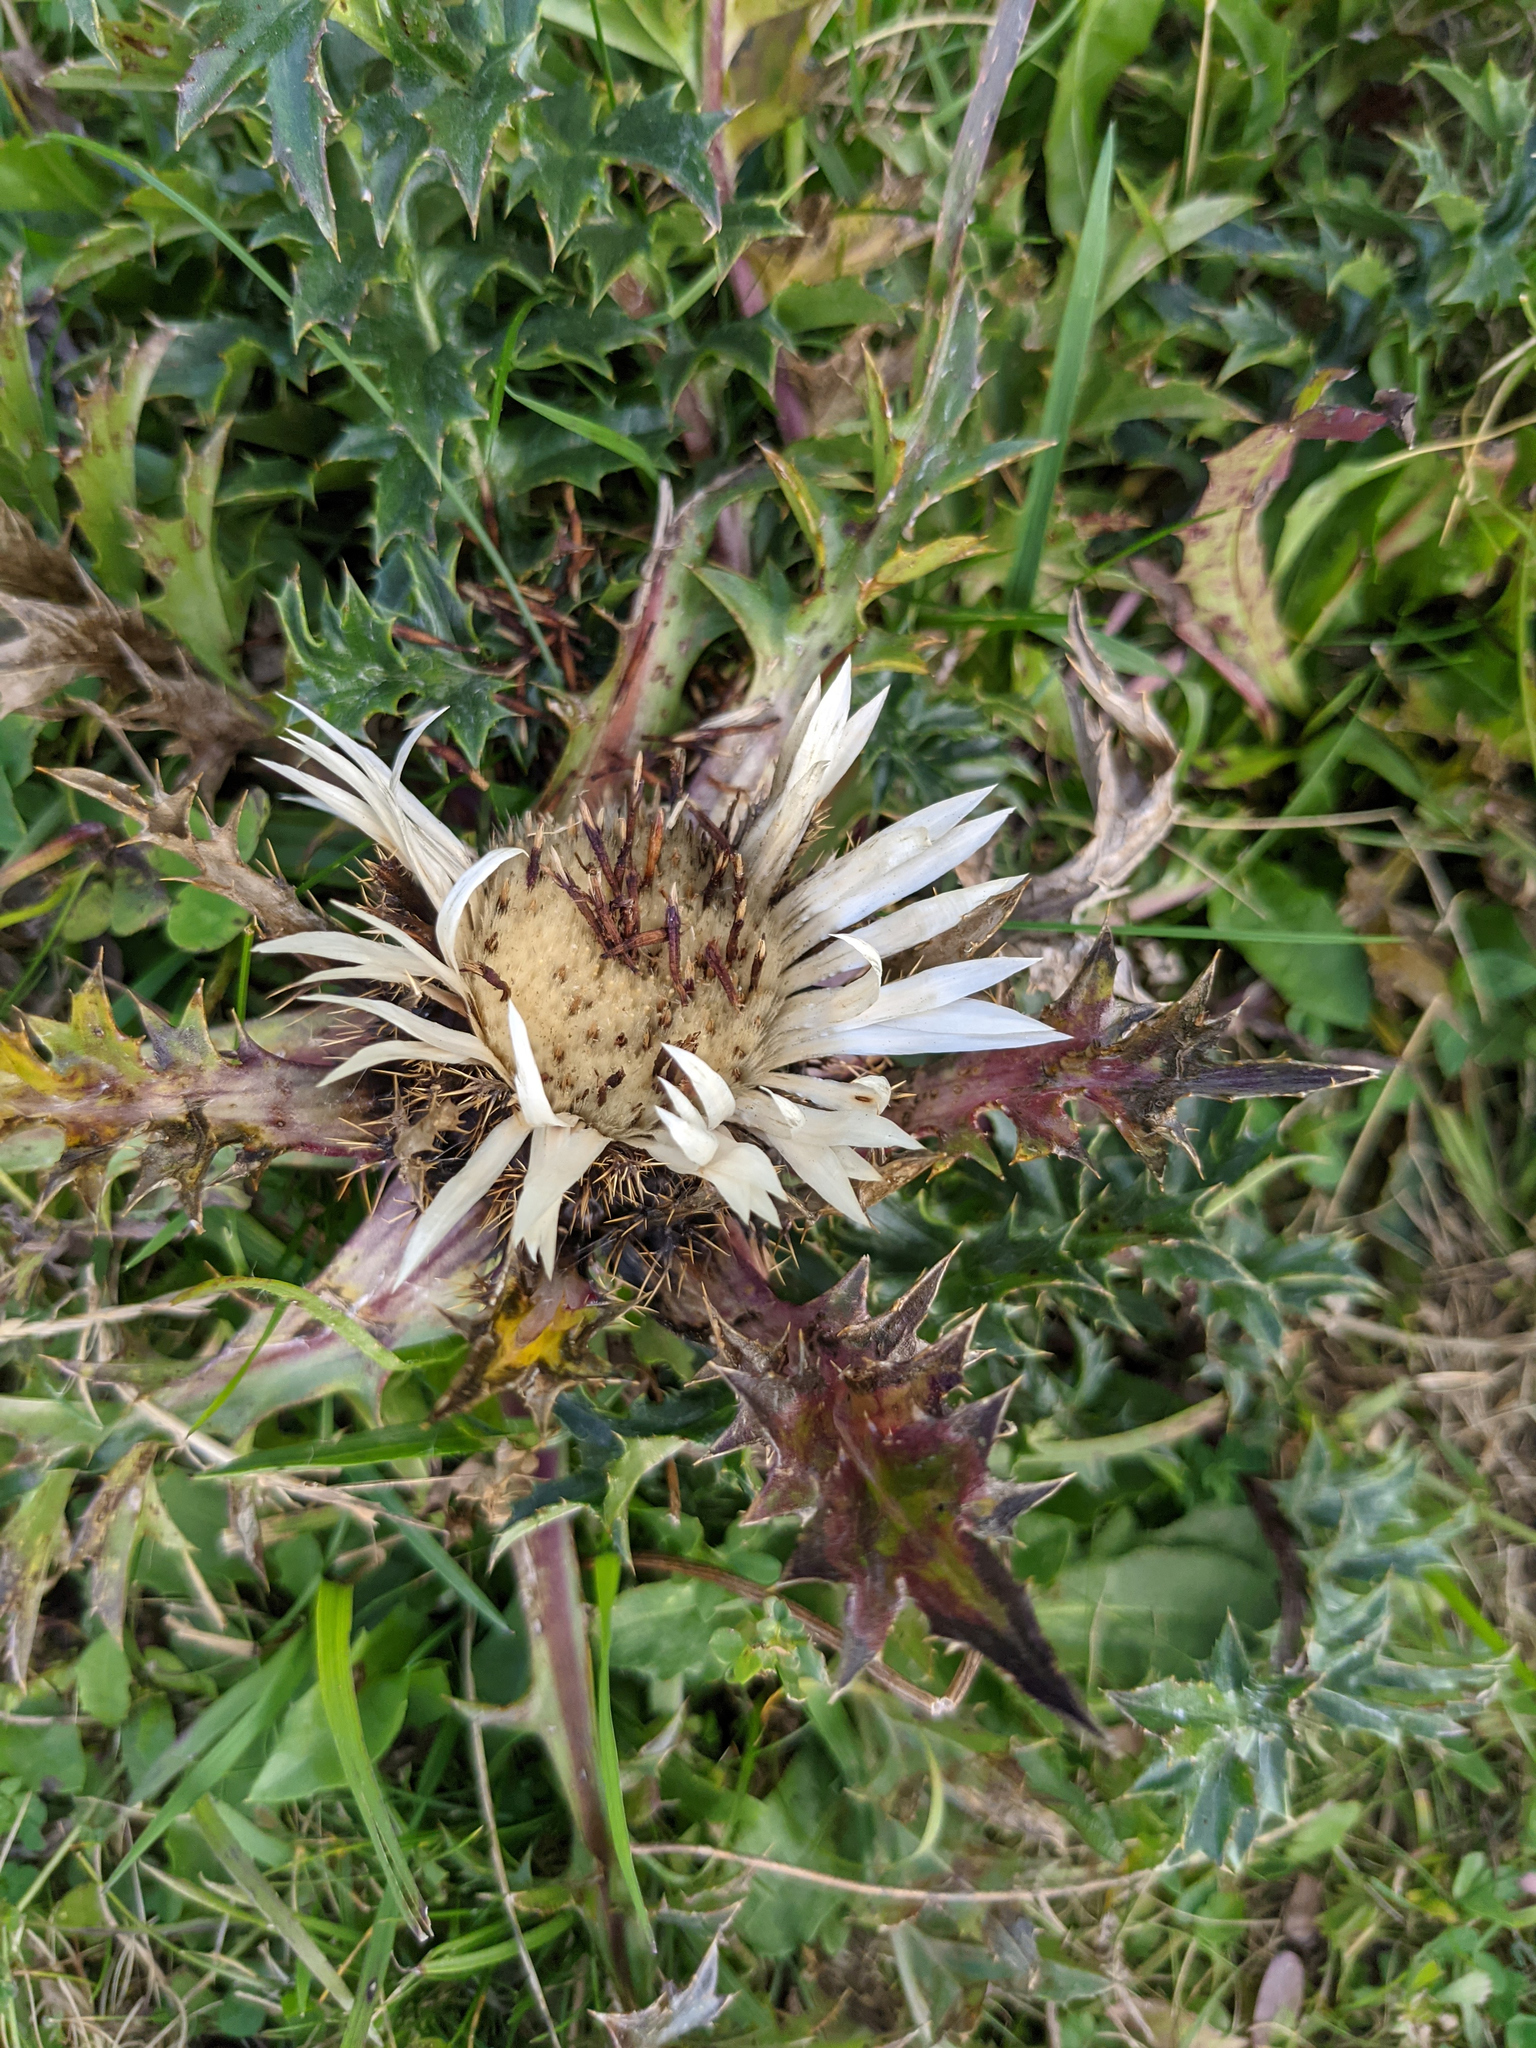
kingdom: Plantae
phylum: Tracheophyta
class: Magnoliopsida
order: Asterales
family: Asteraceae
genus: Carlina
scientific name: Carlina acaulis
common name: Stemless carline thistle
